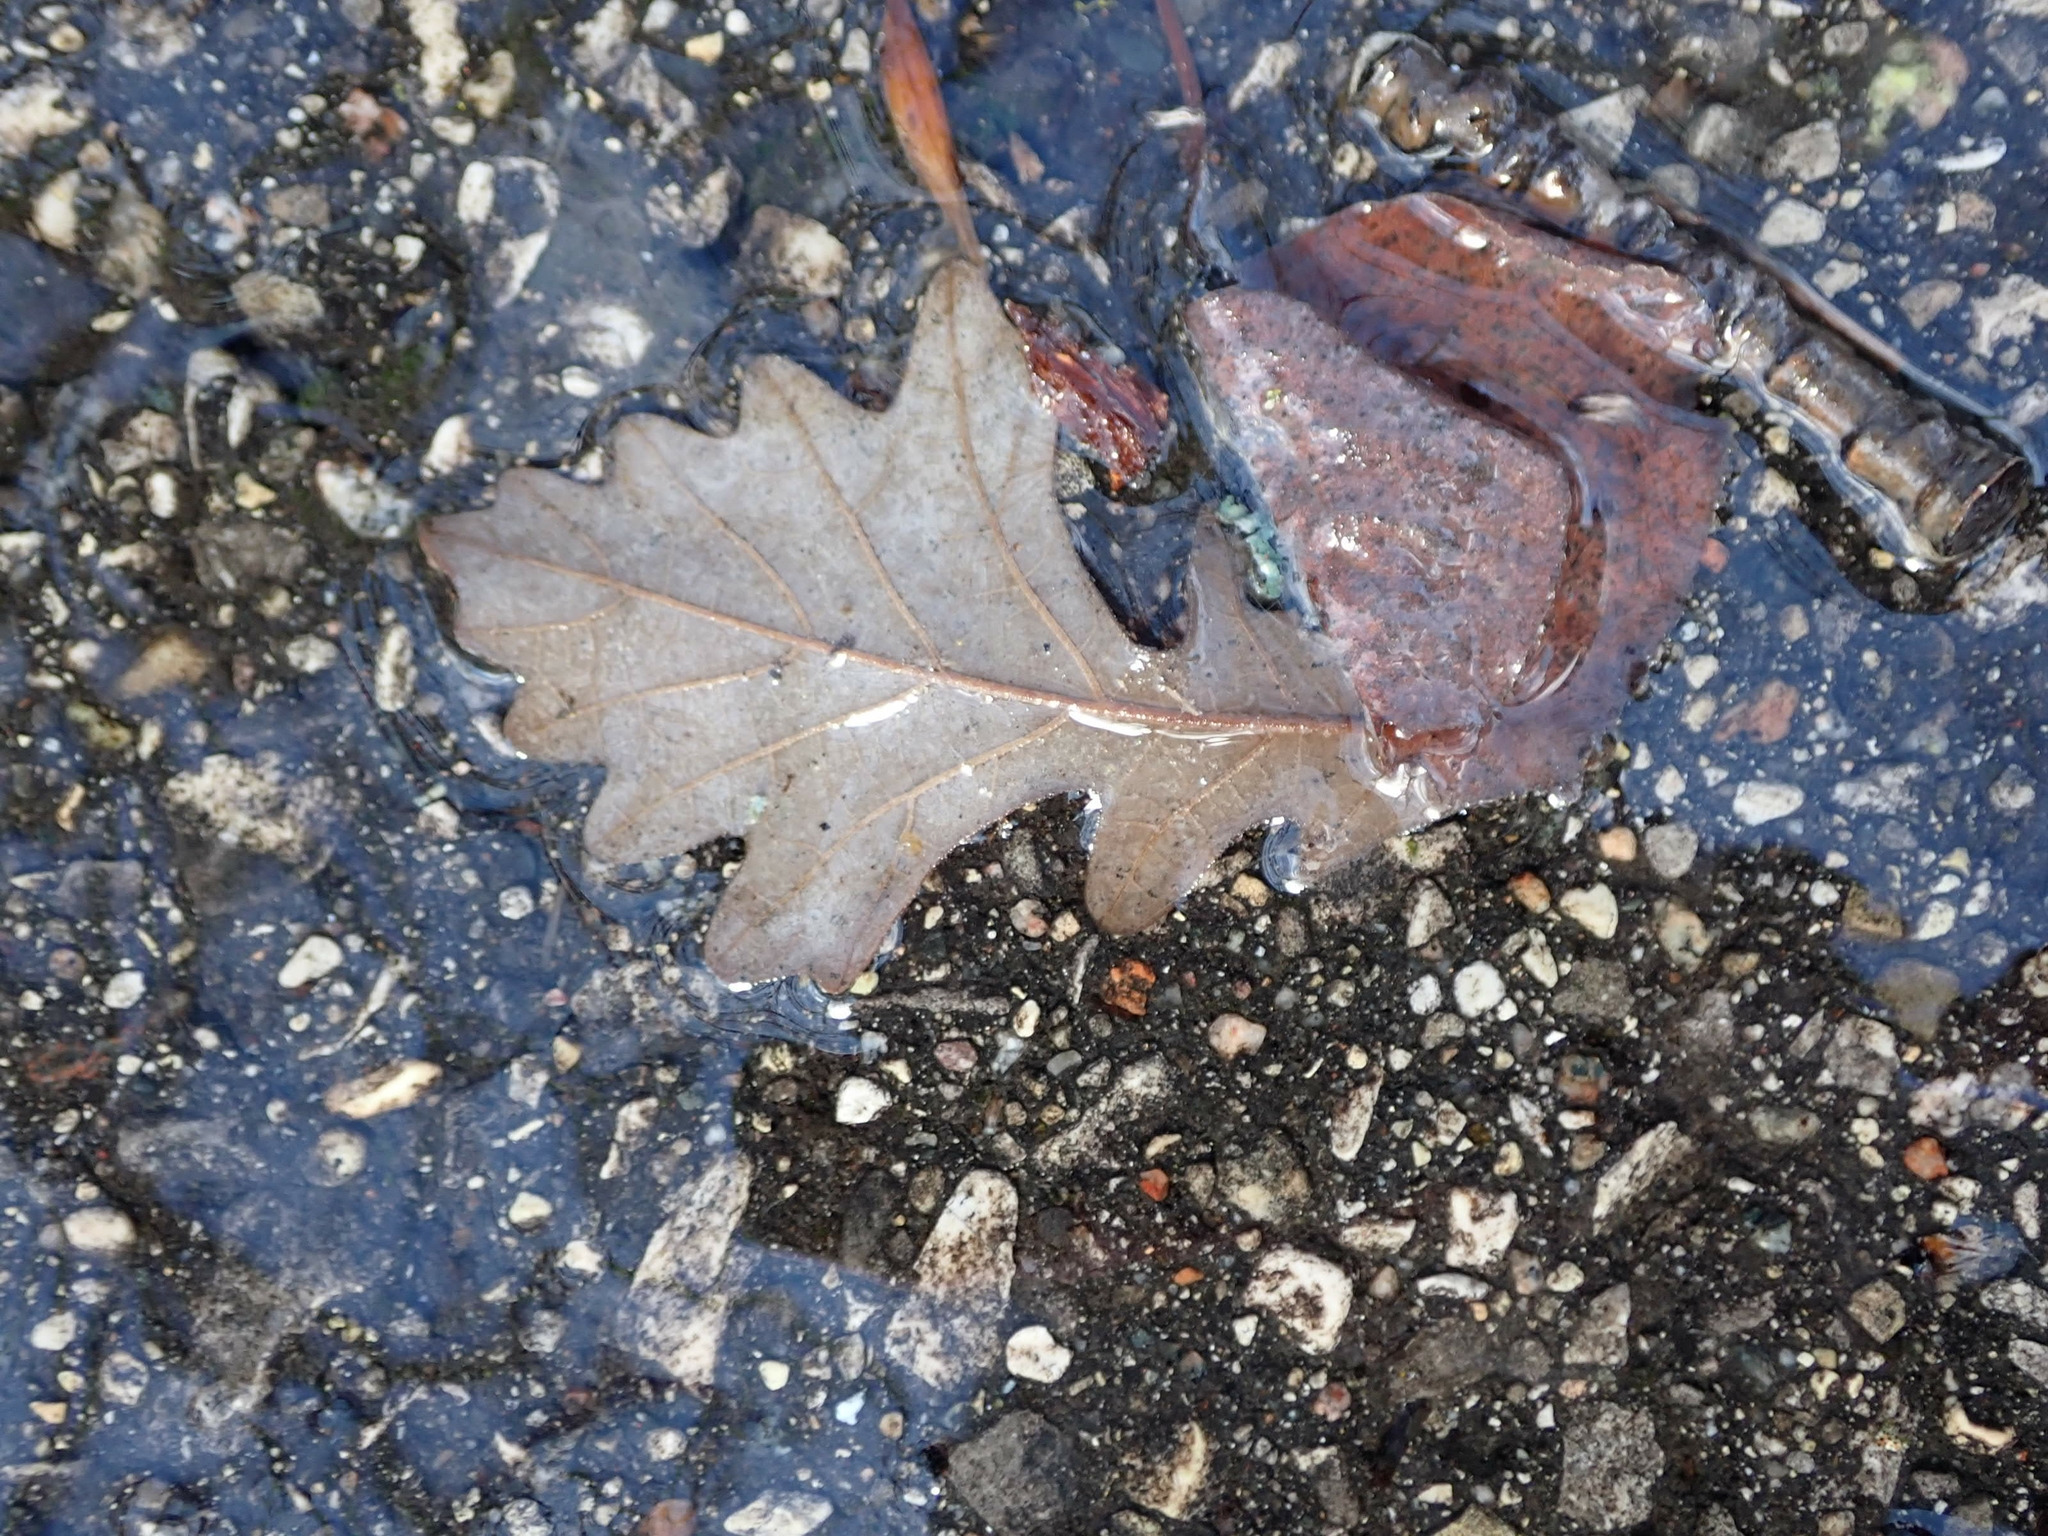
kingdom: Plantae
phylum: Tracheophyta
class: Magnoliopsida
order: Fagales
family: Fagaceae
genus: Quercus
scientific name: Quercus macrocarpa
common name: Bur oak
